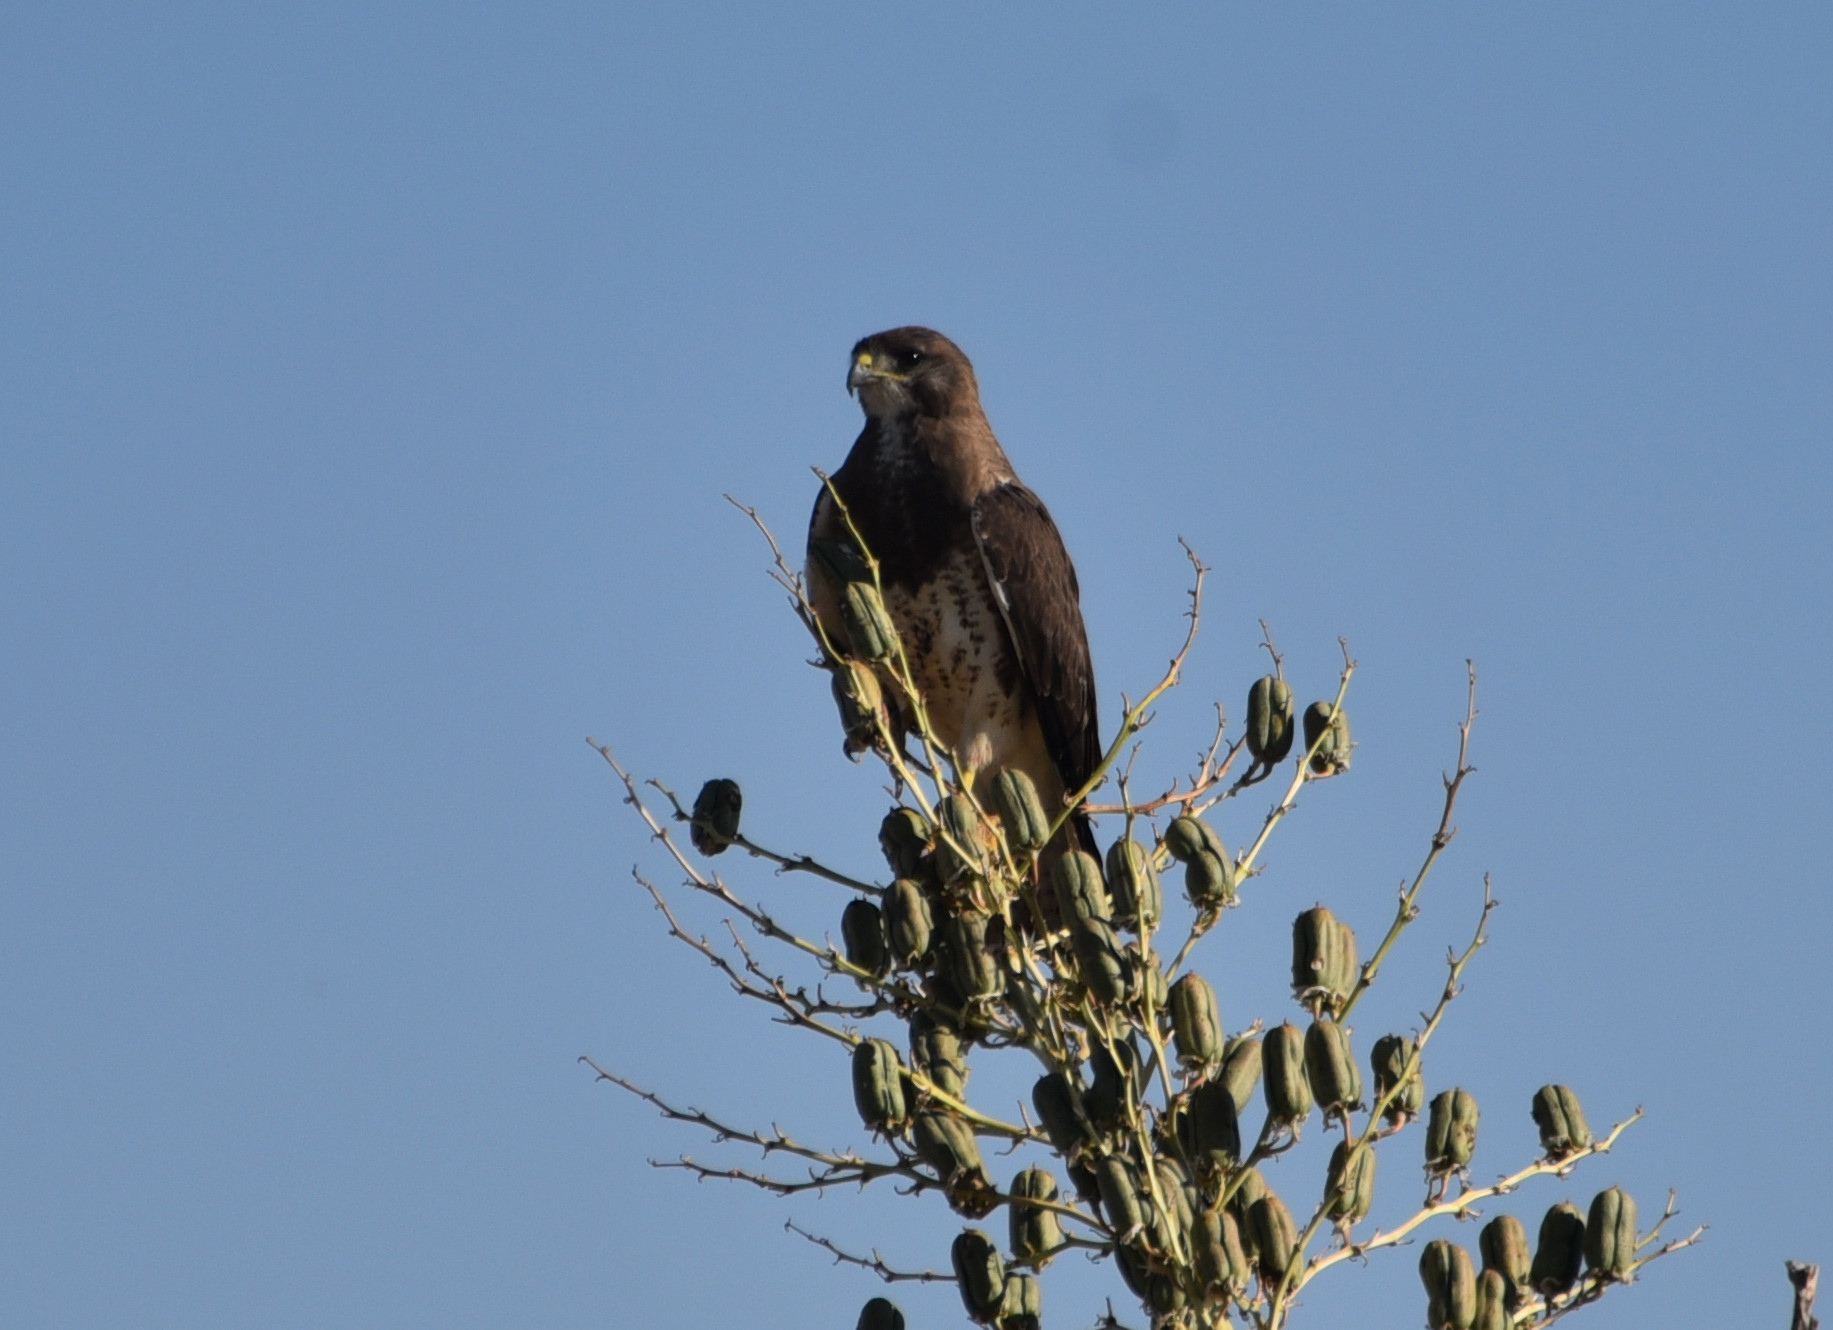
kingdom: Animalia
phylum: Chordata
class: Aves
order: Accipitriformes
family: Accipitridae
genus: Buteo
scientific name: Buteo swainsoni
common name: Swainson's hawk
